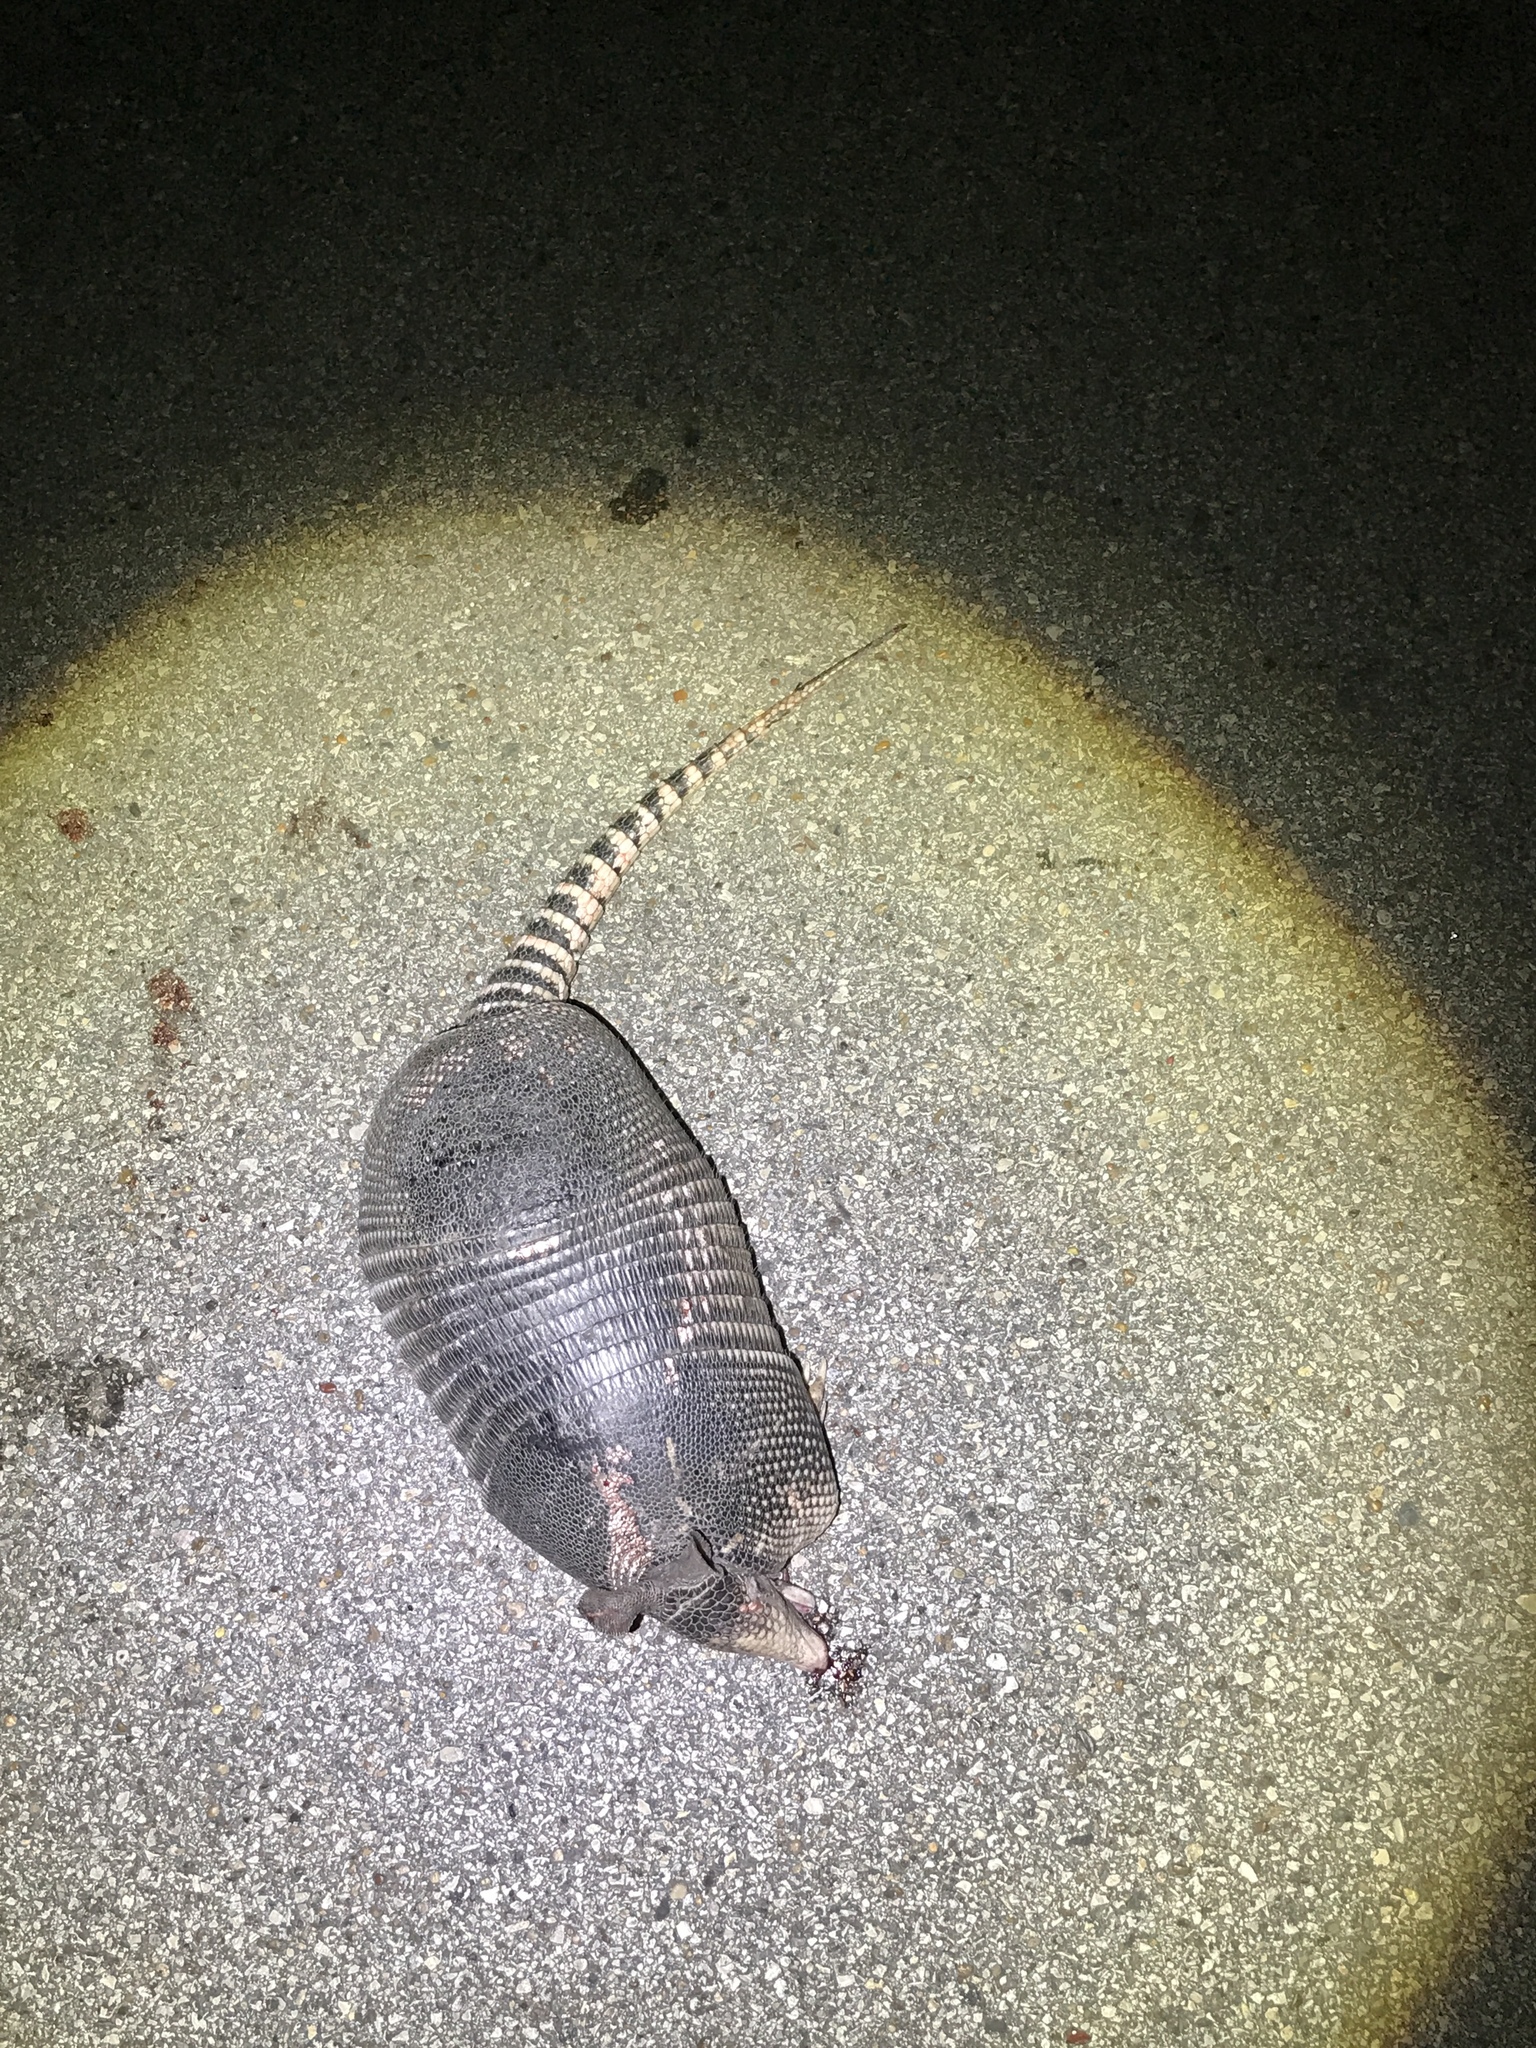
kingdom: Animalia
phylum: Chordata
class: Mammalia
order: Cingulata
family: Dasypodidae
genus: Dasypus
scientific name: Dasypus novemcinctus
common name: Nine-banded armadillo
